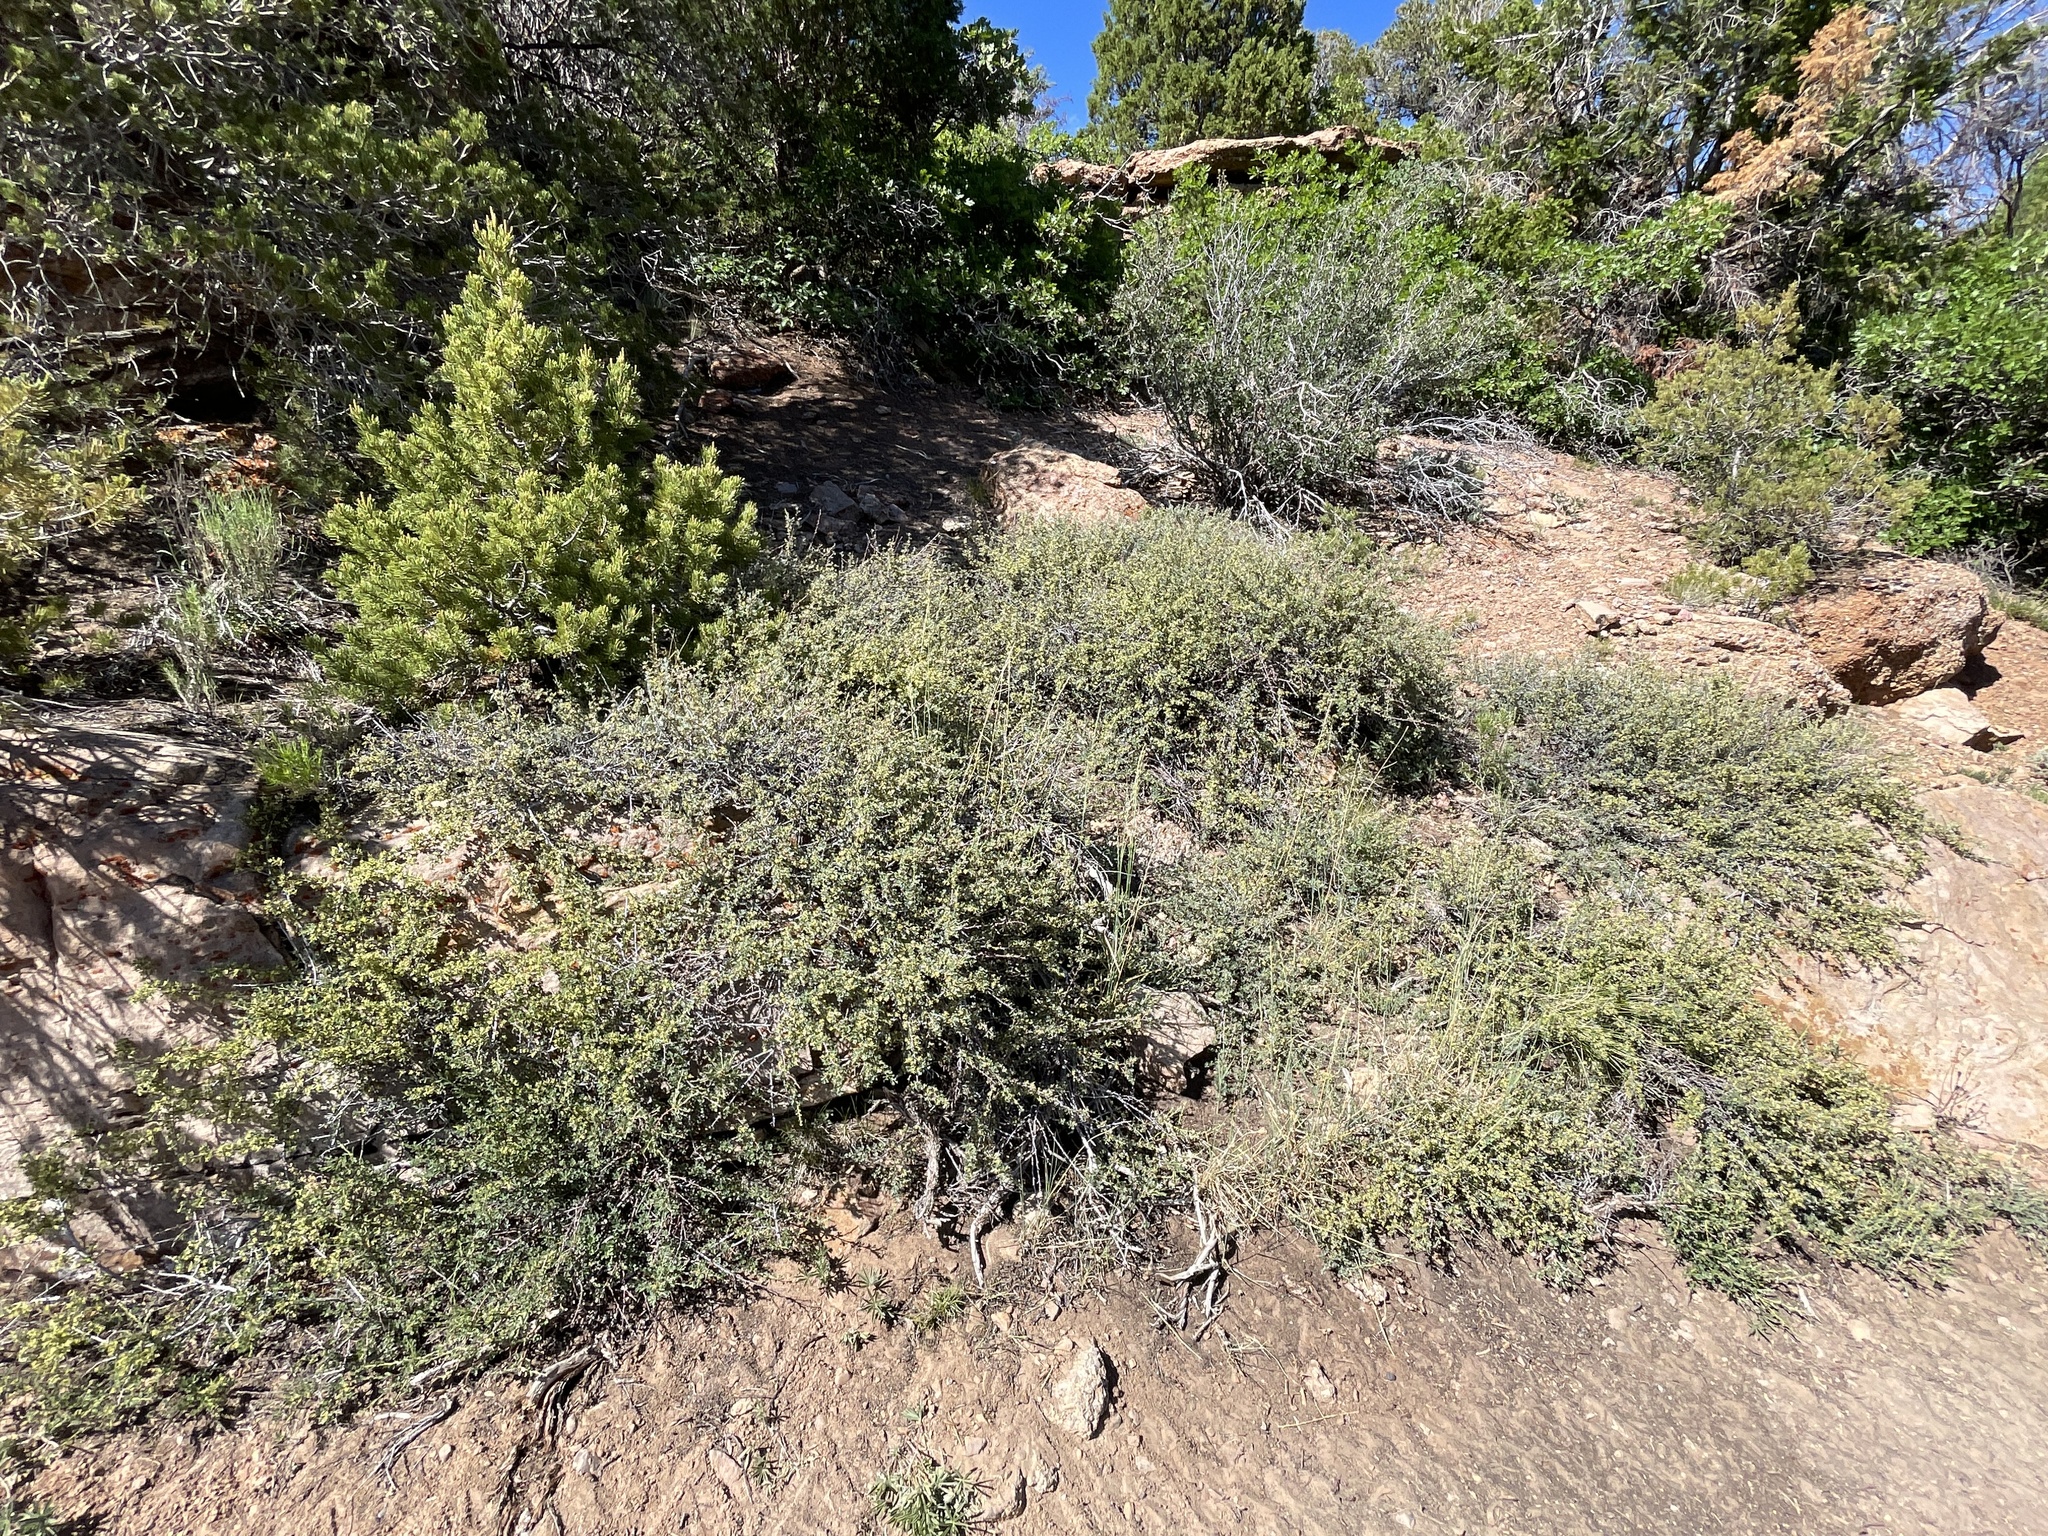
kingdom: Plantae
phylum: Tracheophyta
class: Magnoliopsida
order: Rosales
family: Rosaceae
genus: Purshia
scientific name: Purshia tridentata
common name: Antelope bitterbrush
